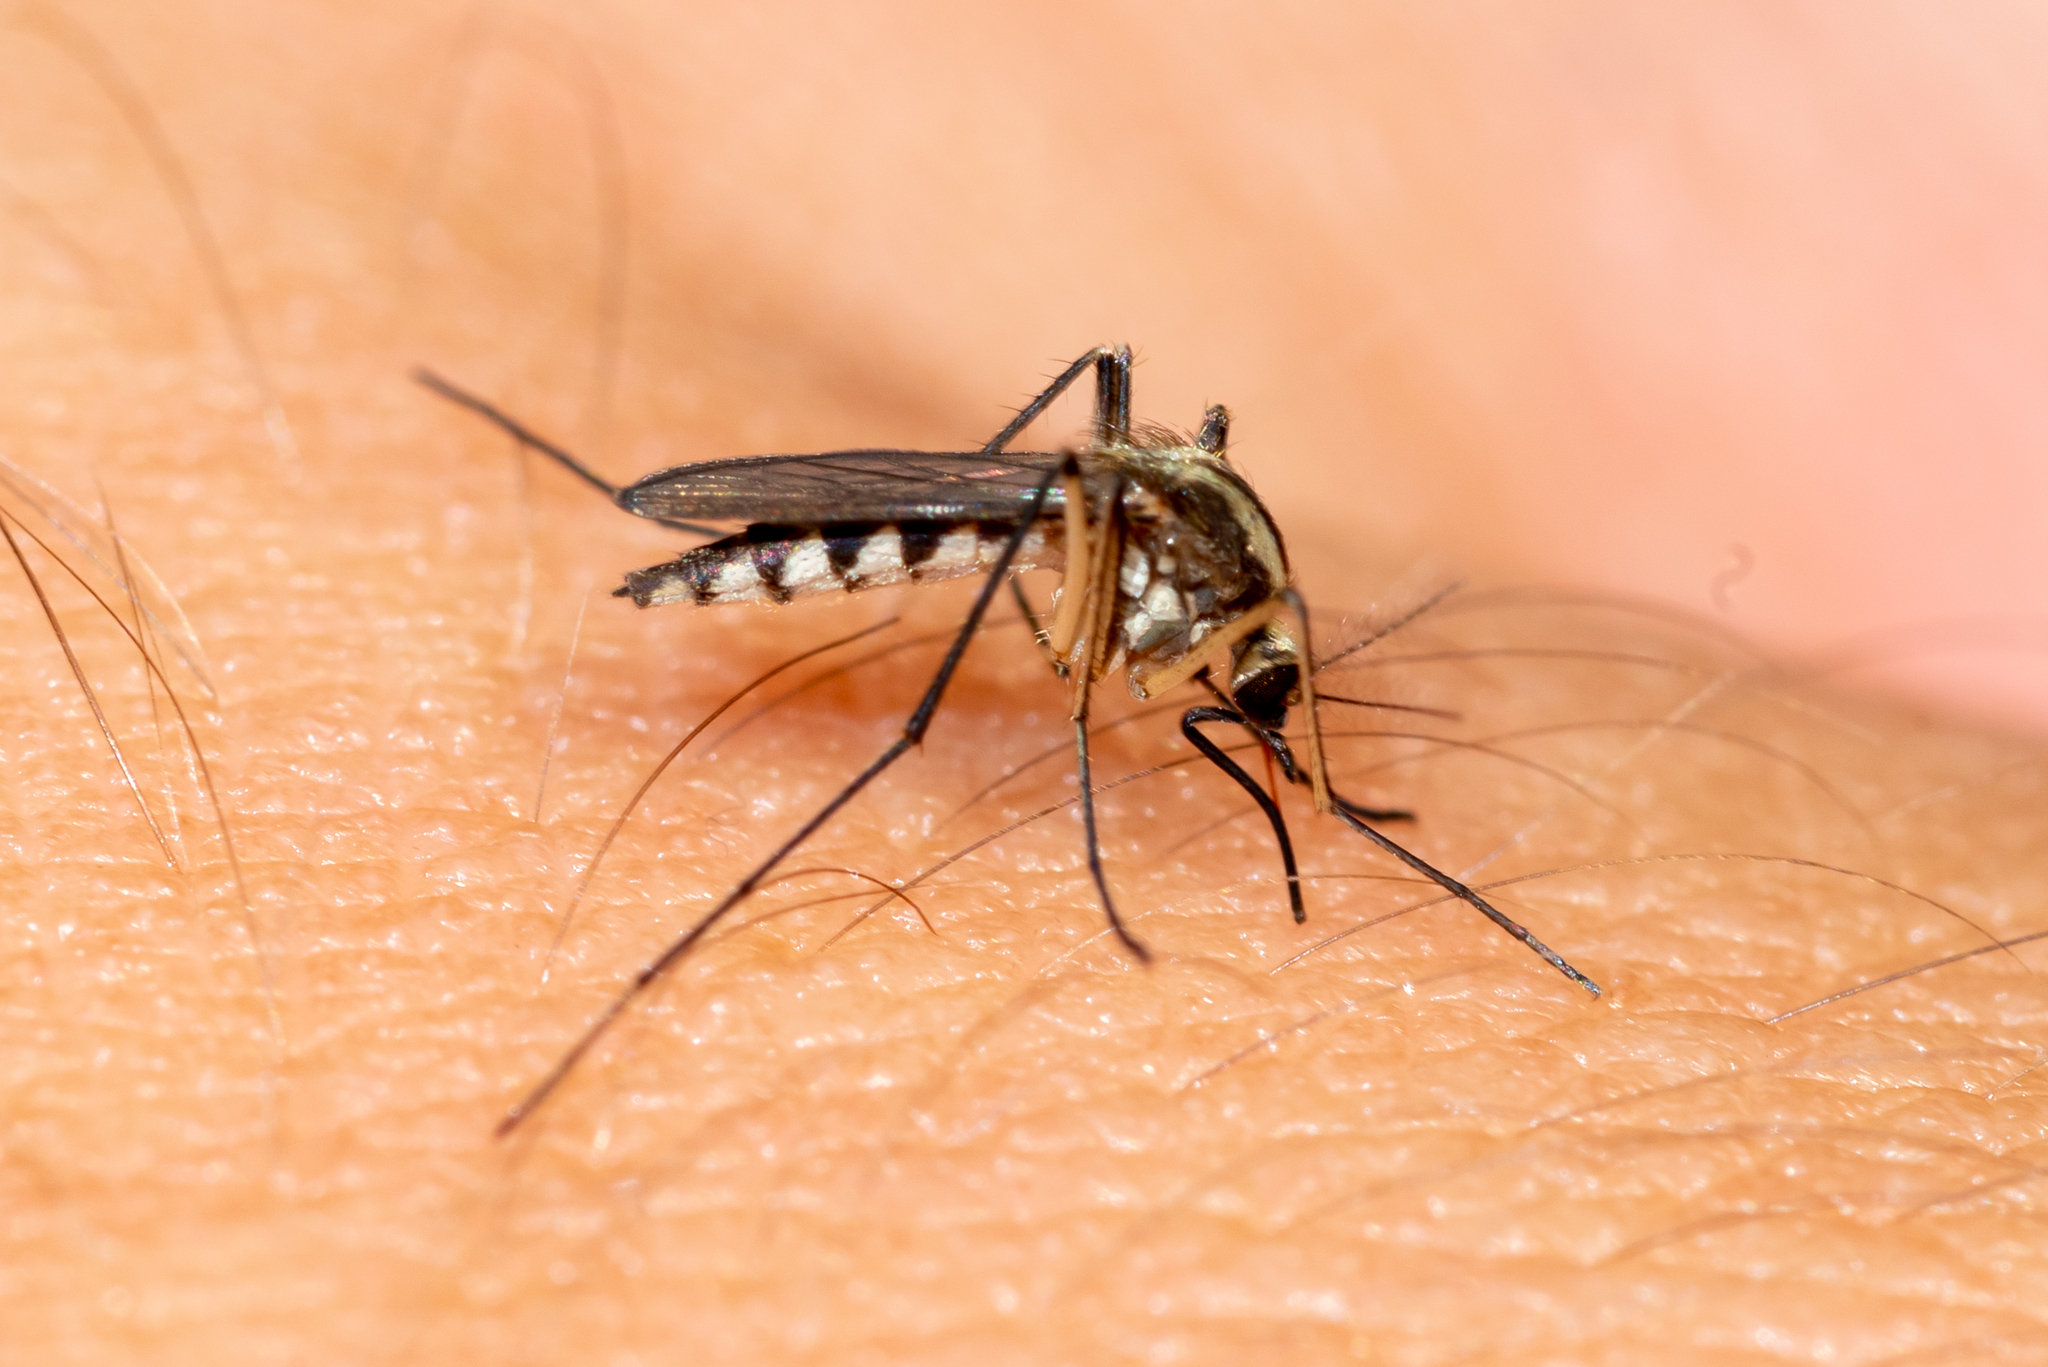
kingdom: Animalia
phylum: Arthropoda
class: Insecta
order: Diptera
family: Culicidae
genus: Aedes
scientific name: Aedes trivittatus
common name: Plains floodwater mosquito
